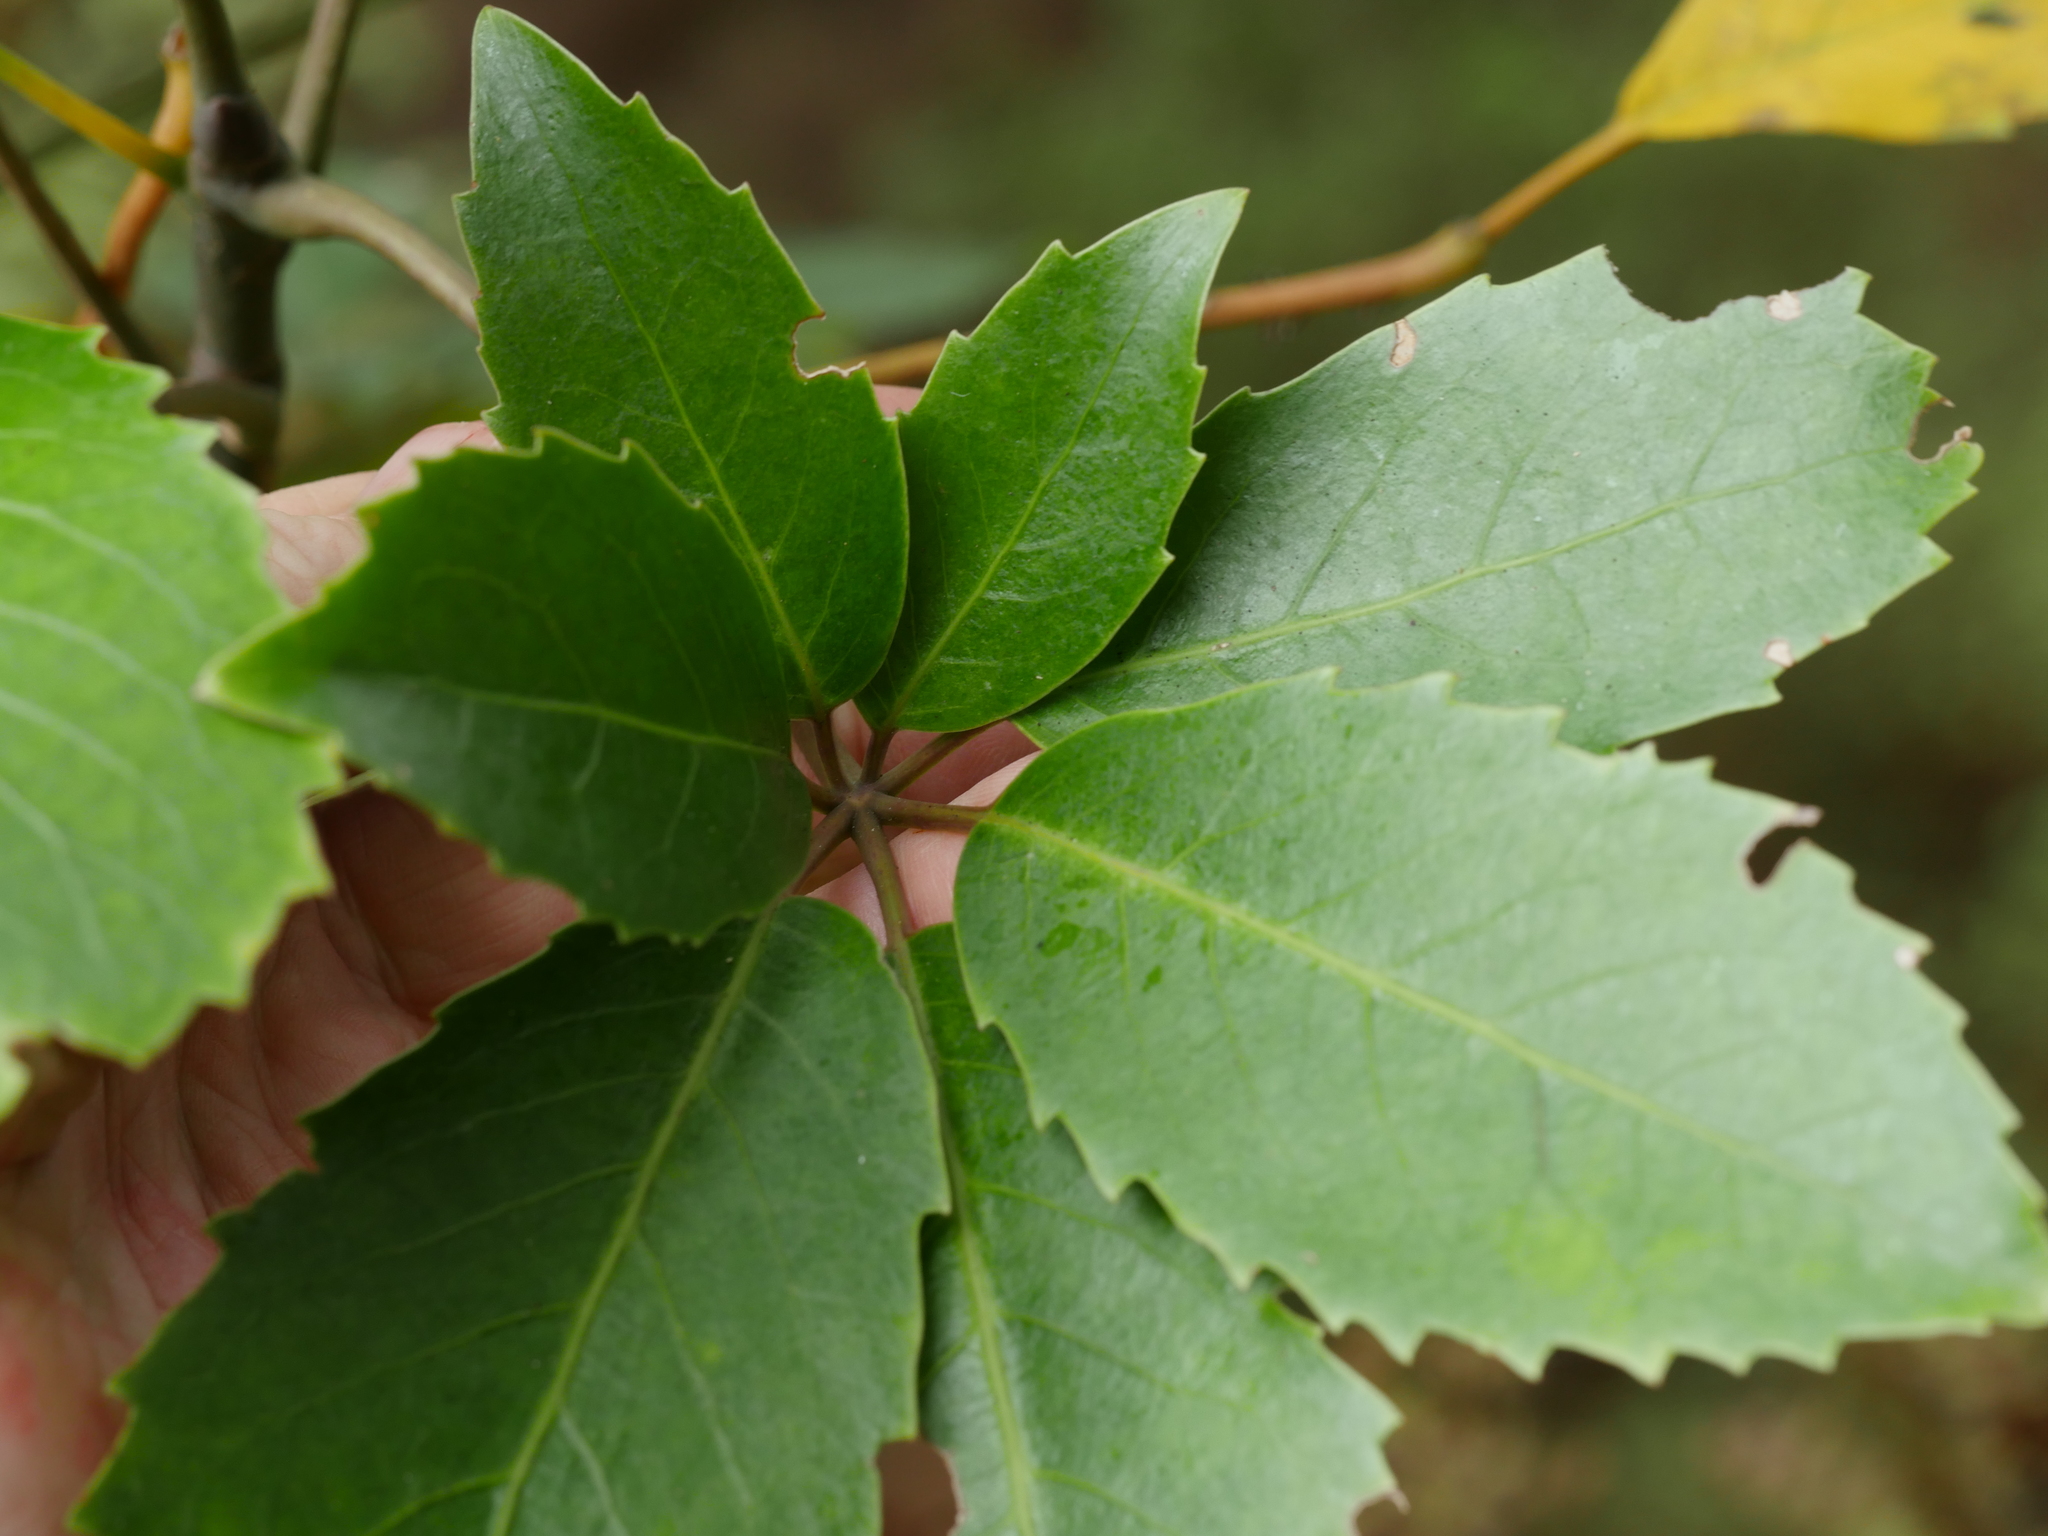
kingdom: Plantae
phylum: Tracheophyta
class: Magnoliopsida
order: Apiales
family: Araliaceae
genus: Neopanax
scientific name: Neopanax arboreus
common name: Five-fingers
